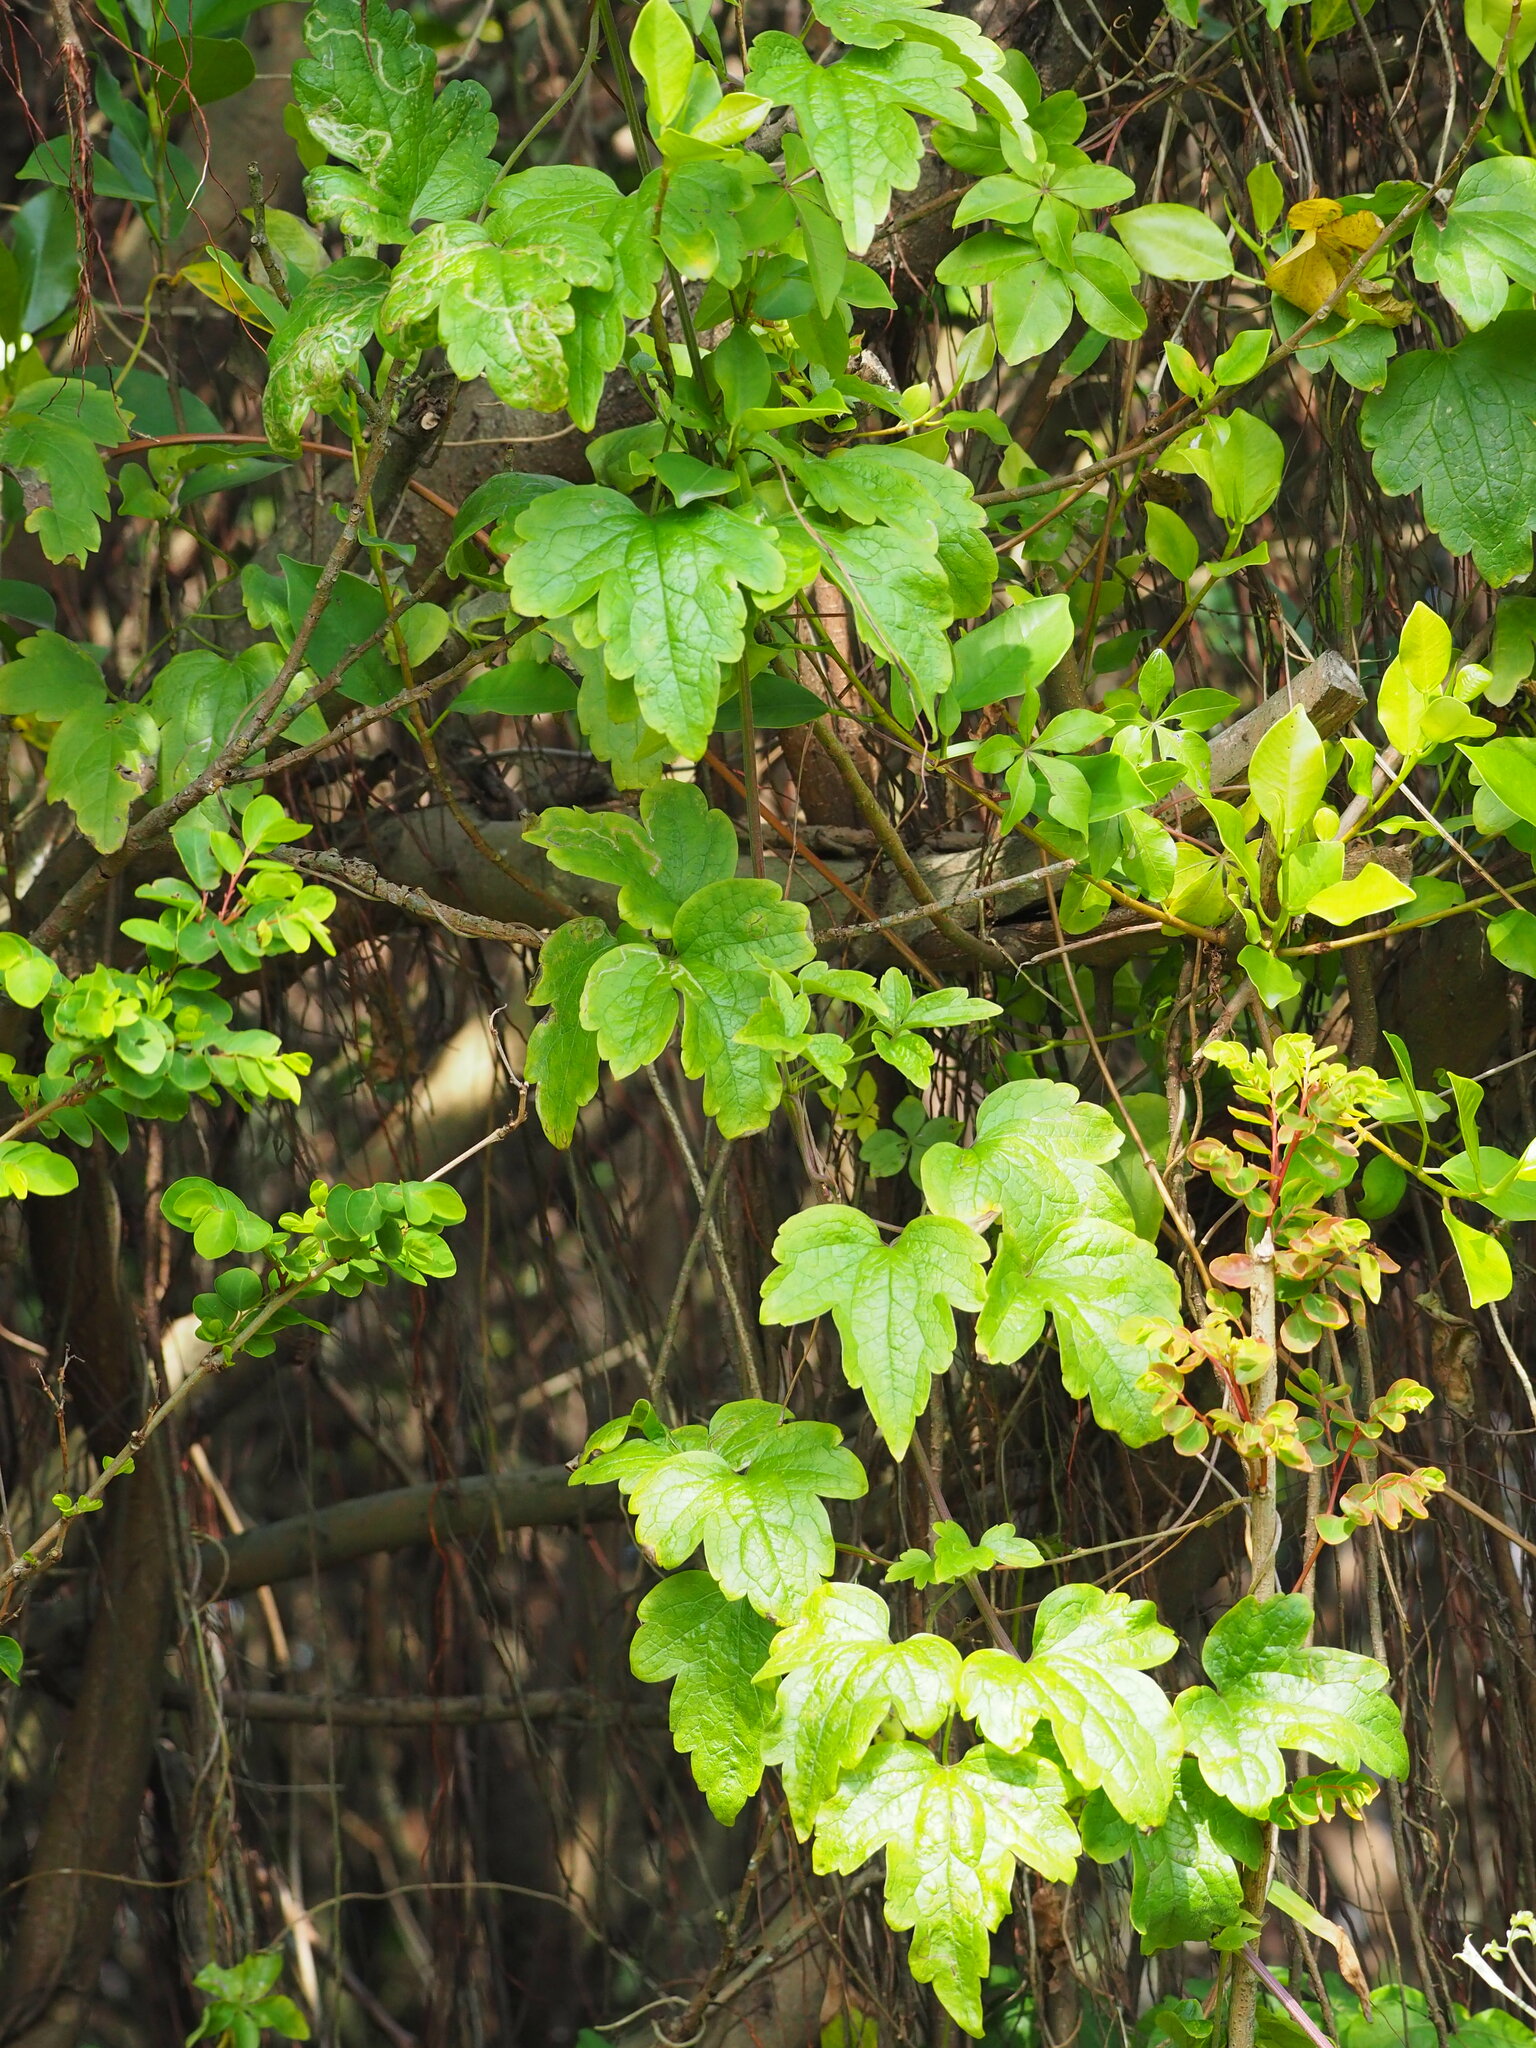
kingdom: Plantae
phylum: Tracheophyta
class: Magnoliopsida
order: Ranunculales
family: Ranunculaceae
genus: Clematis
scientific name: Clematis grata
